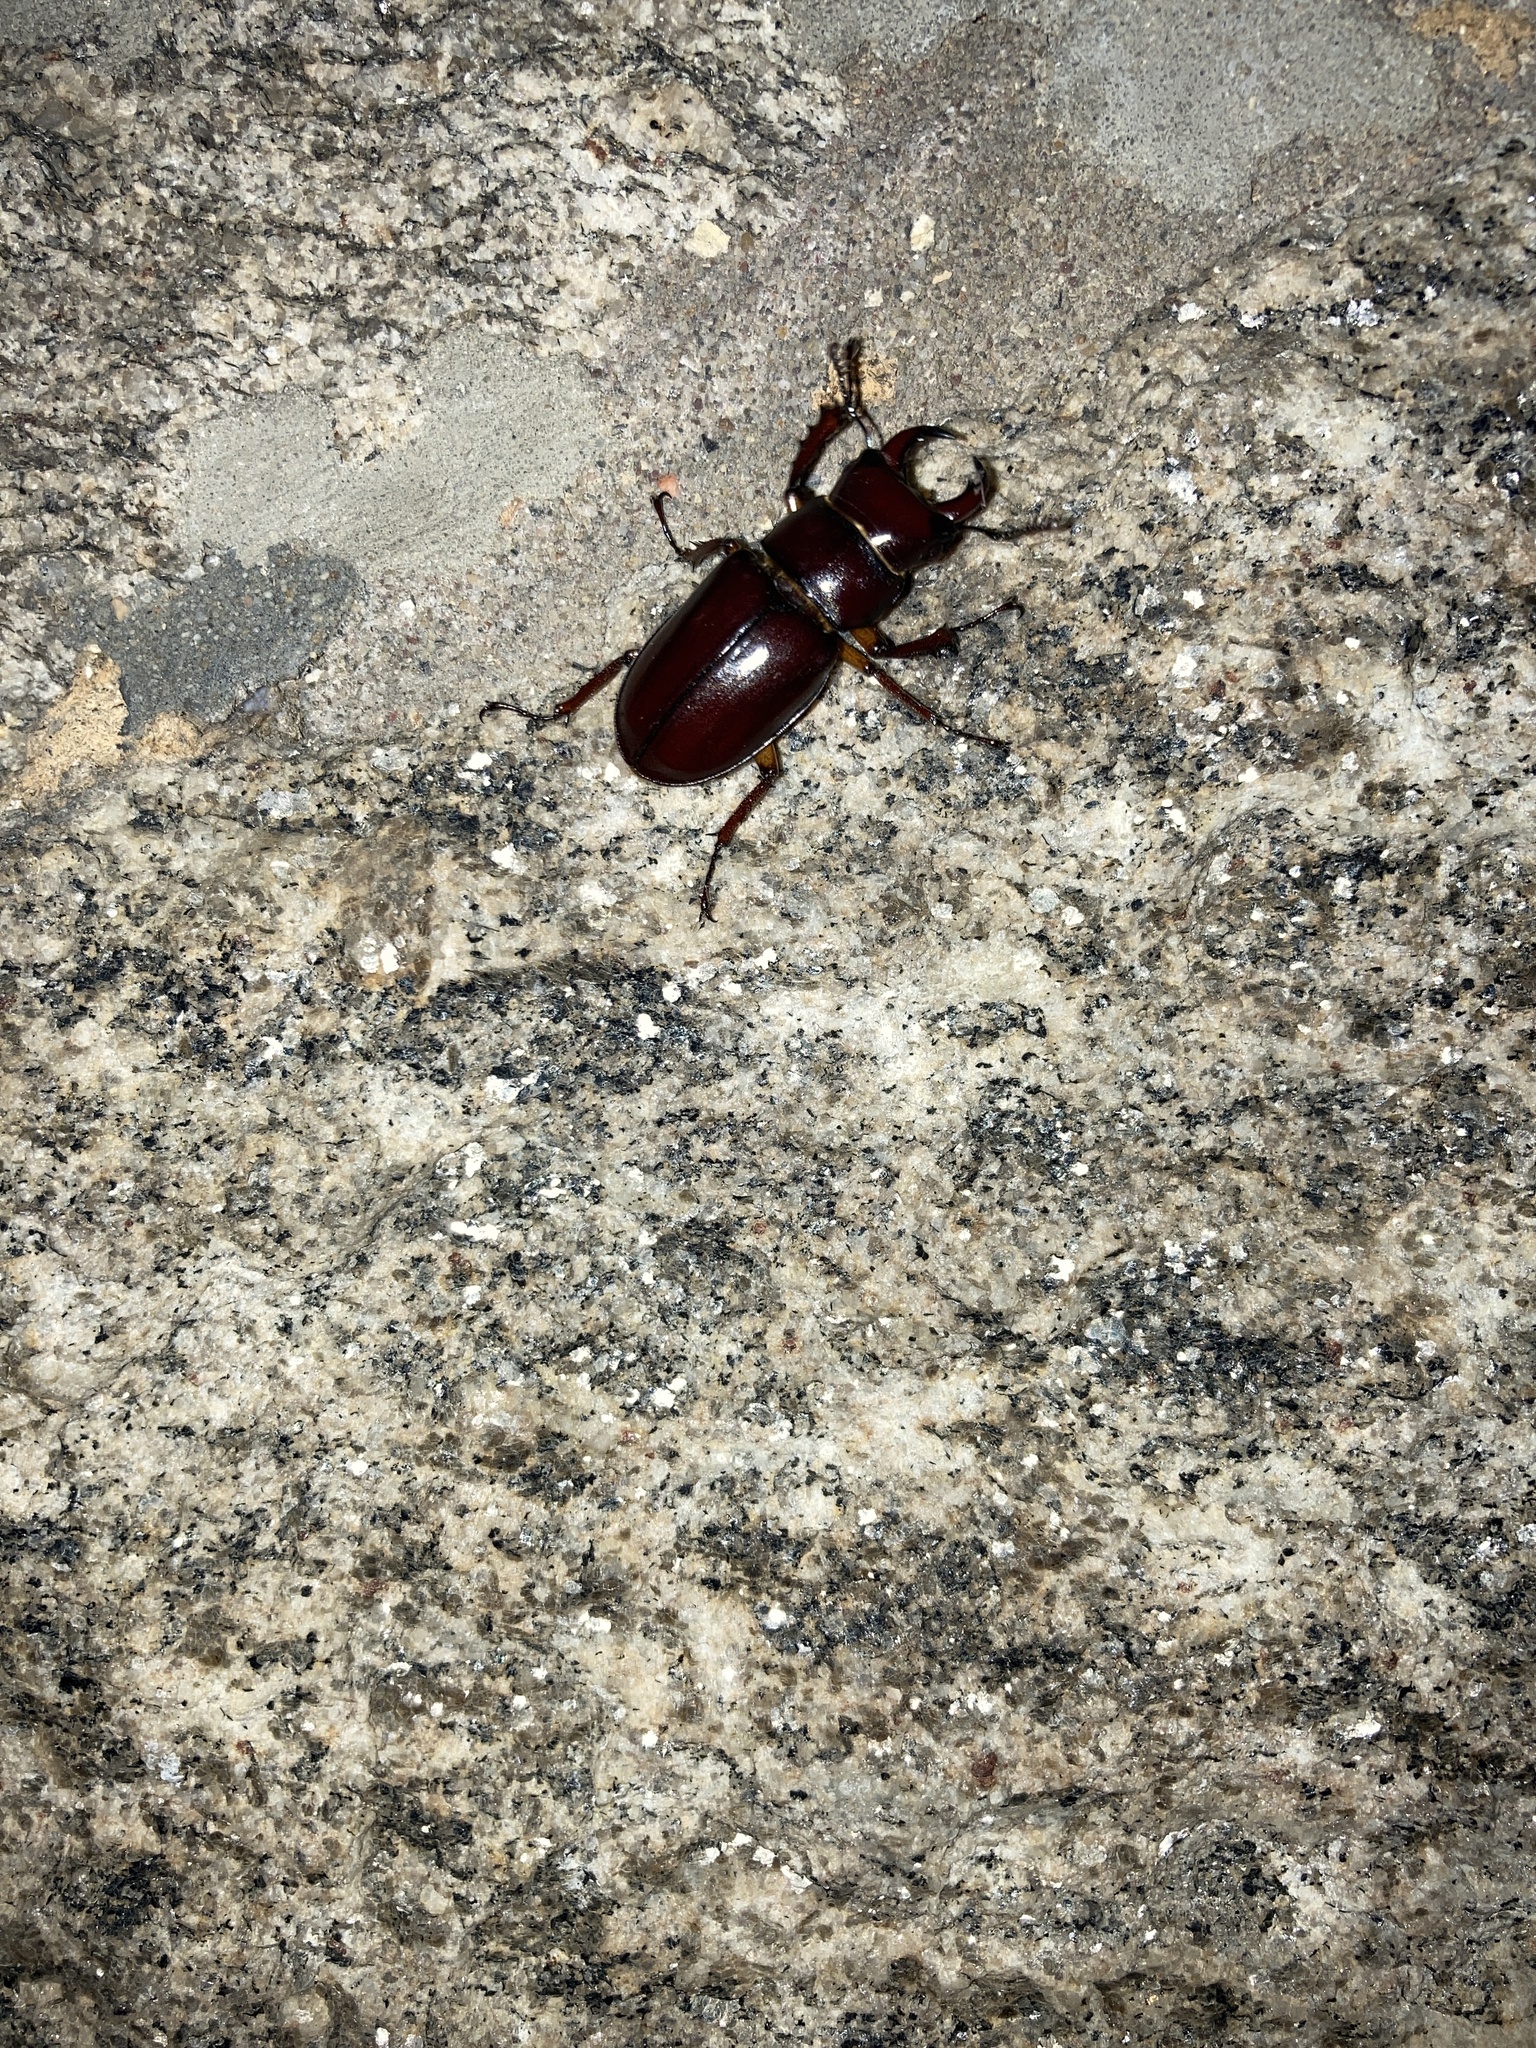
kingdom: Animalia
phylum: Arthropoda
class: Insecta
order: Coleoptera
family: Lucanidae
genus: Lucanus
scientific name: Lucanus capreolus
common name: Stag beetle
